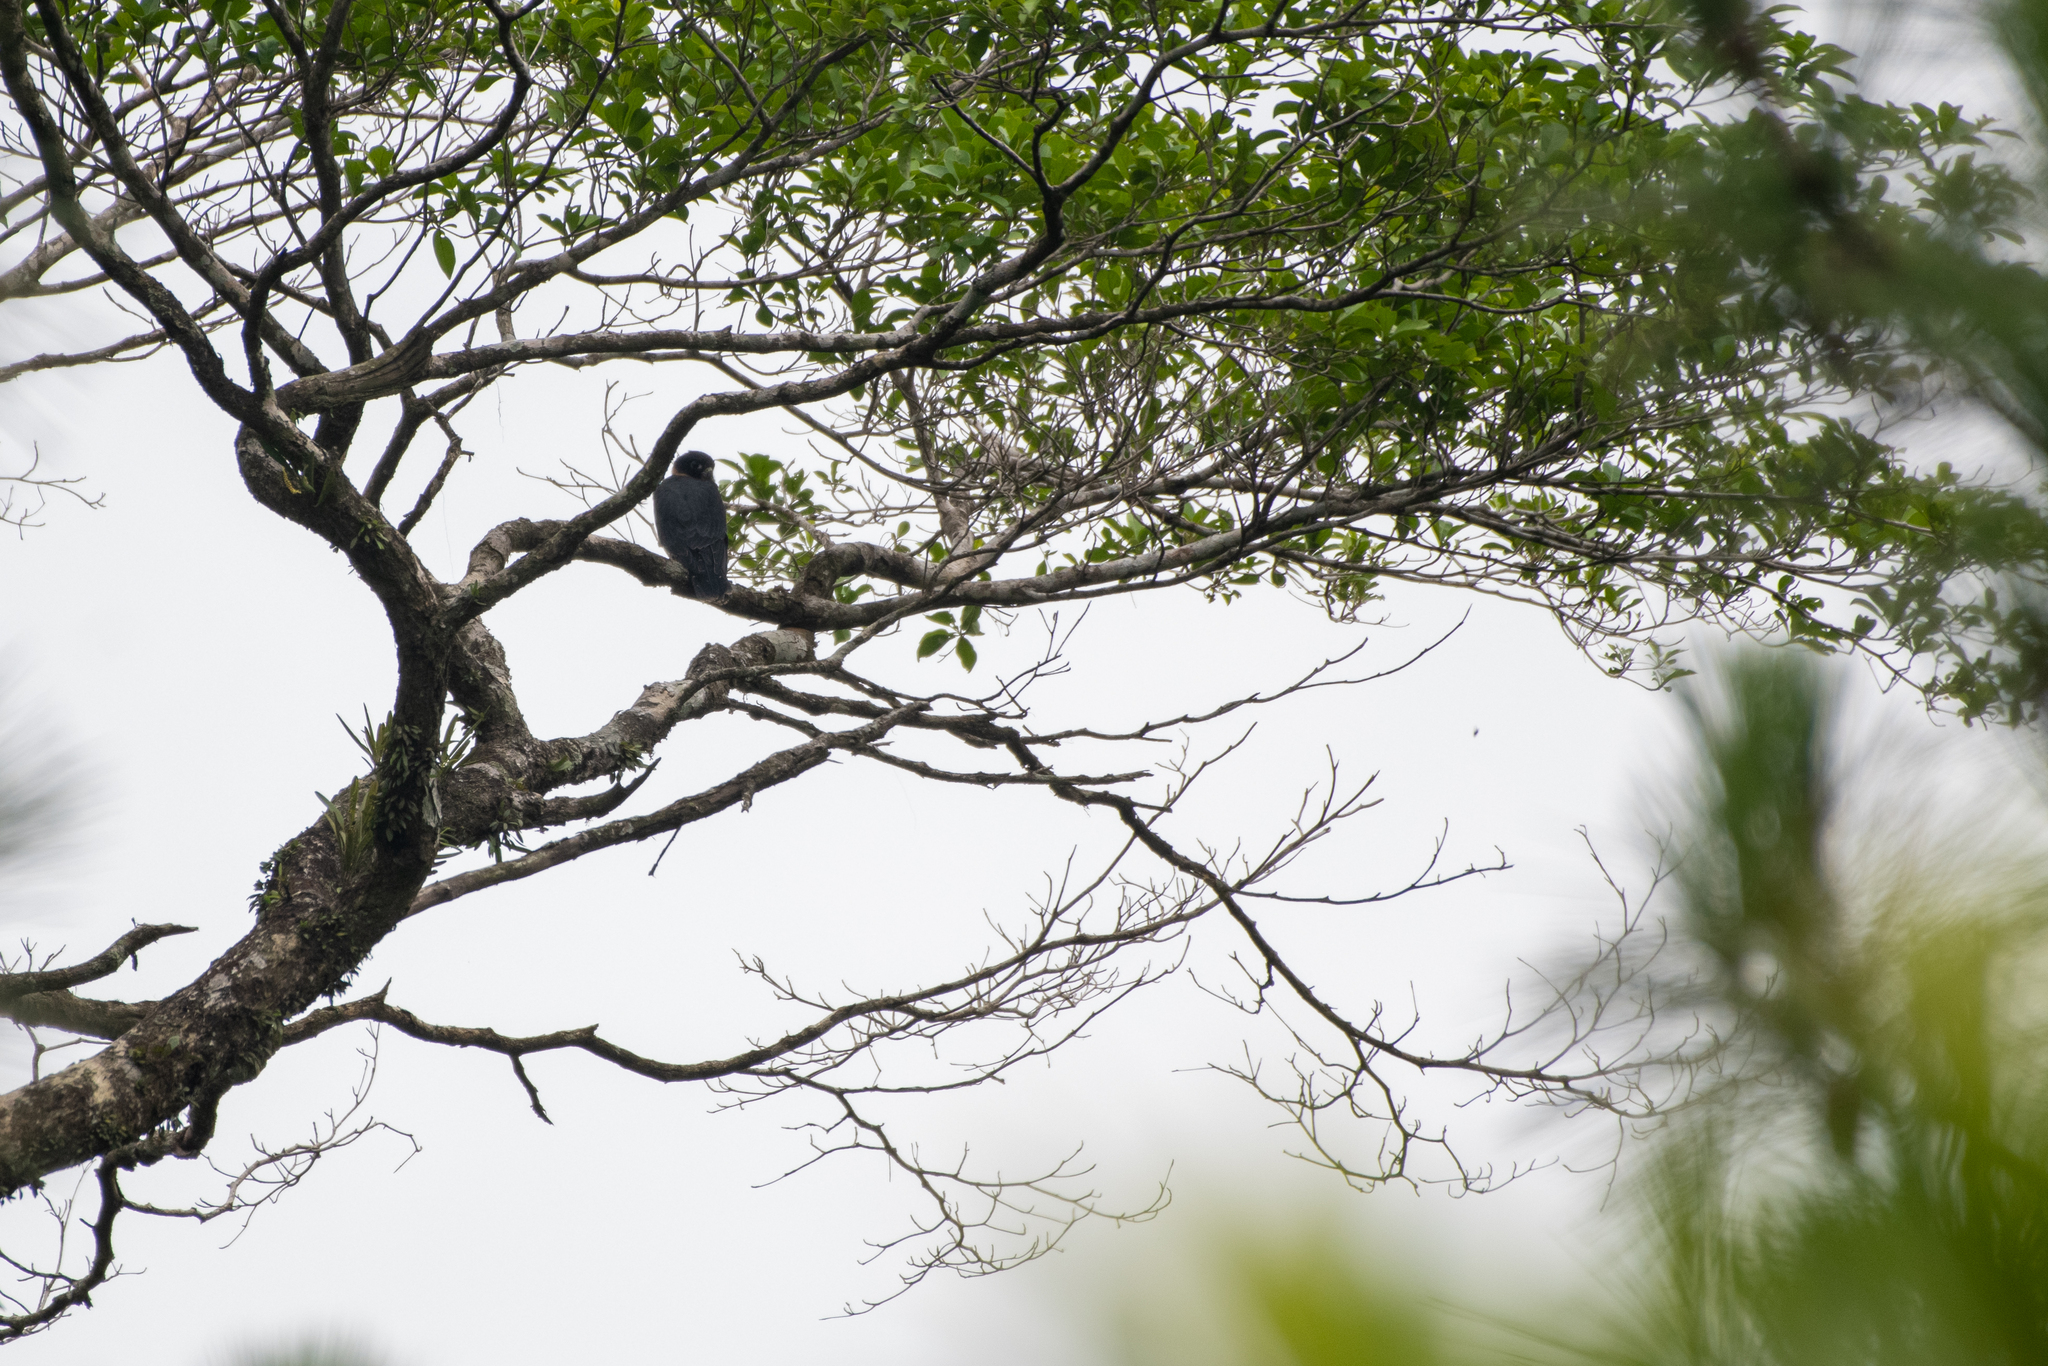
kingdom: Animalia
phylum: Chordata
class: Aves
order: Falconiformes
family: Falconidae
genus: Falco
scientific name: Falco rufigularis
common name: Bat falcon
